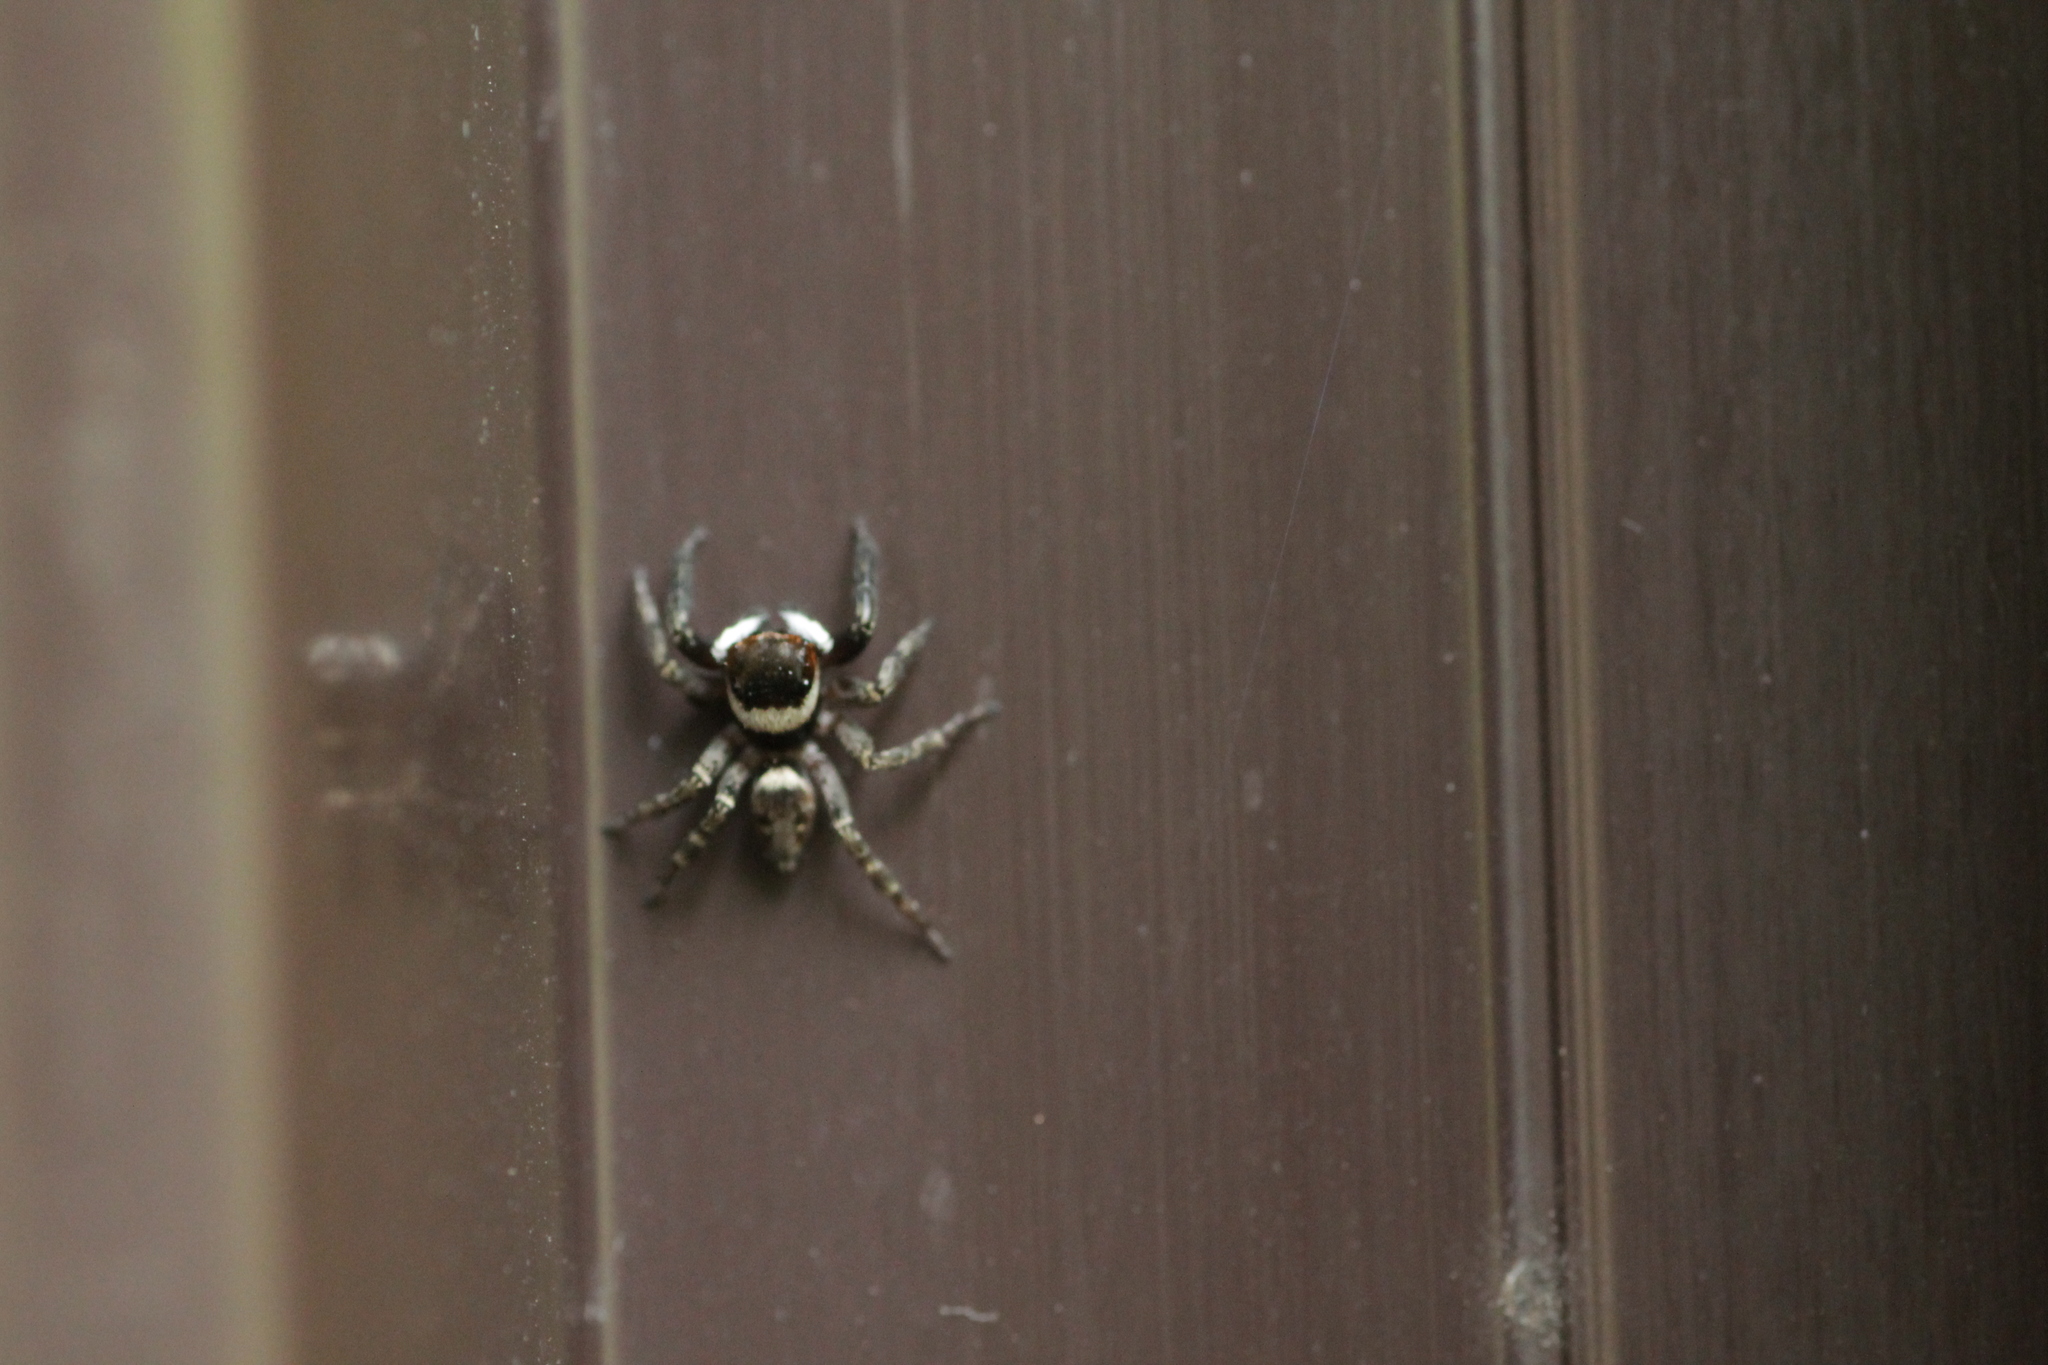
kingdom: Animalia
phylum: Arthropoda
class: Arachnida
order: Araneae
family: Salticidae
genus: Hasarius
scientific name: Hasarius adansoni
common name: Jumping spider
